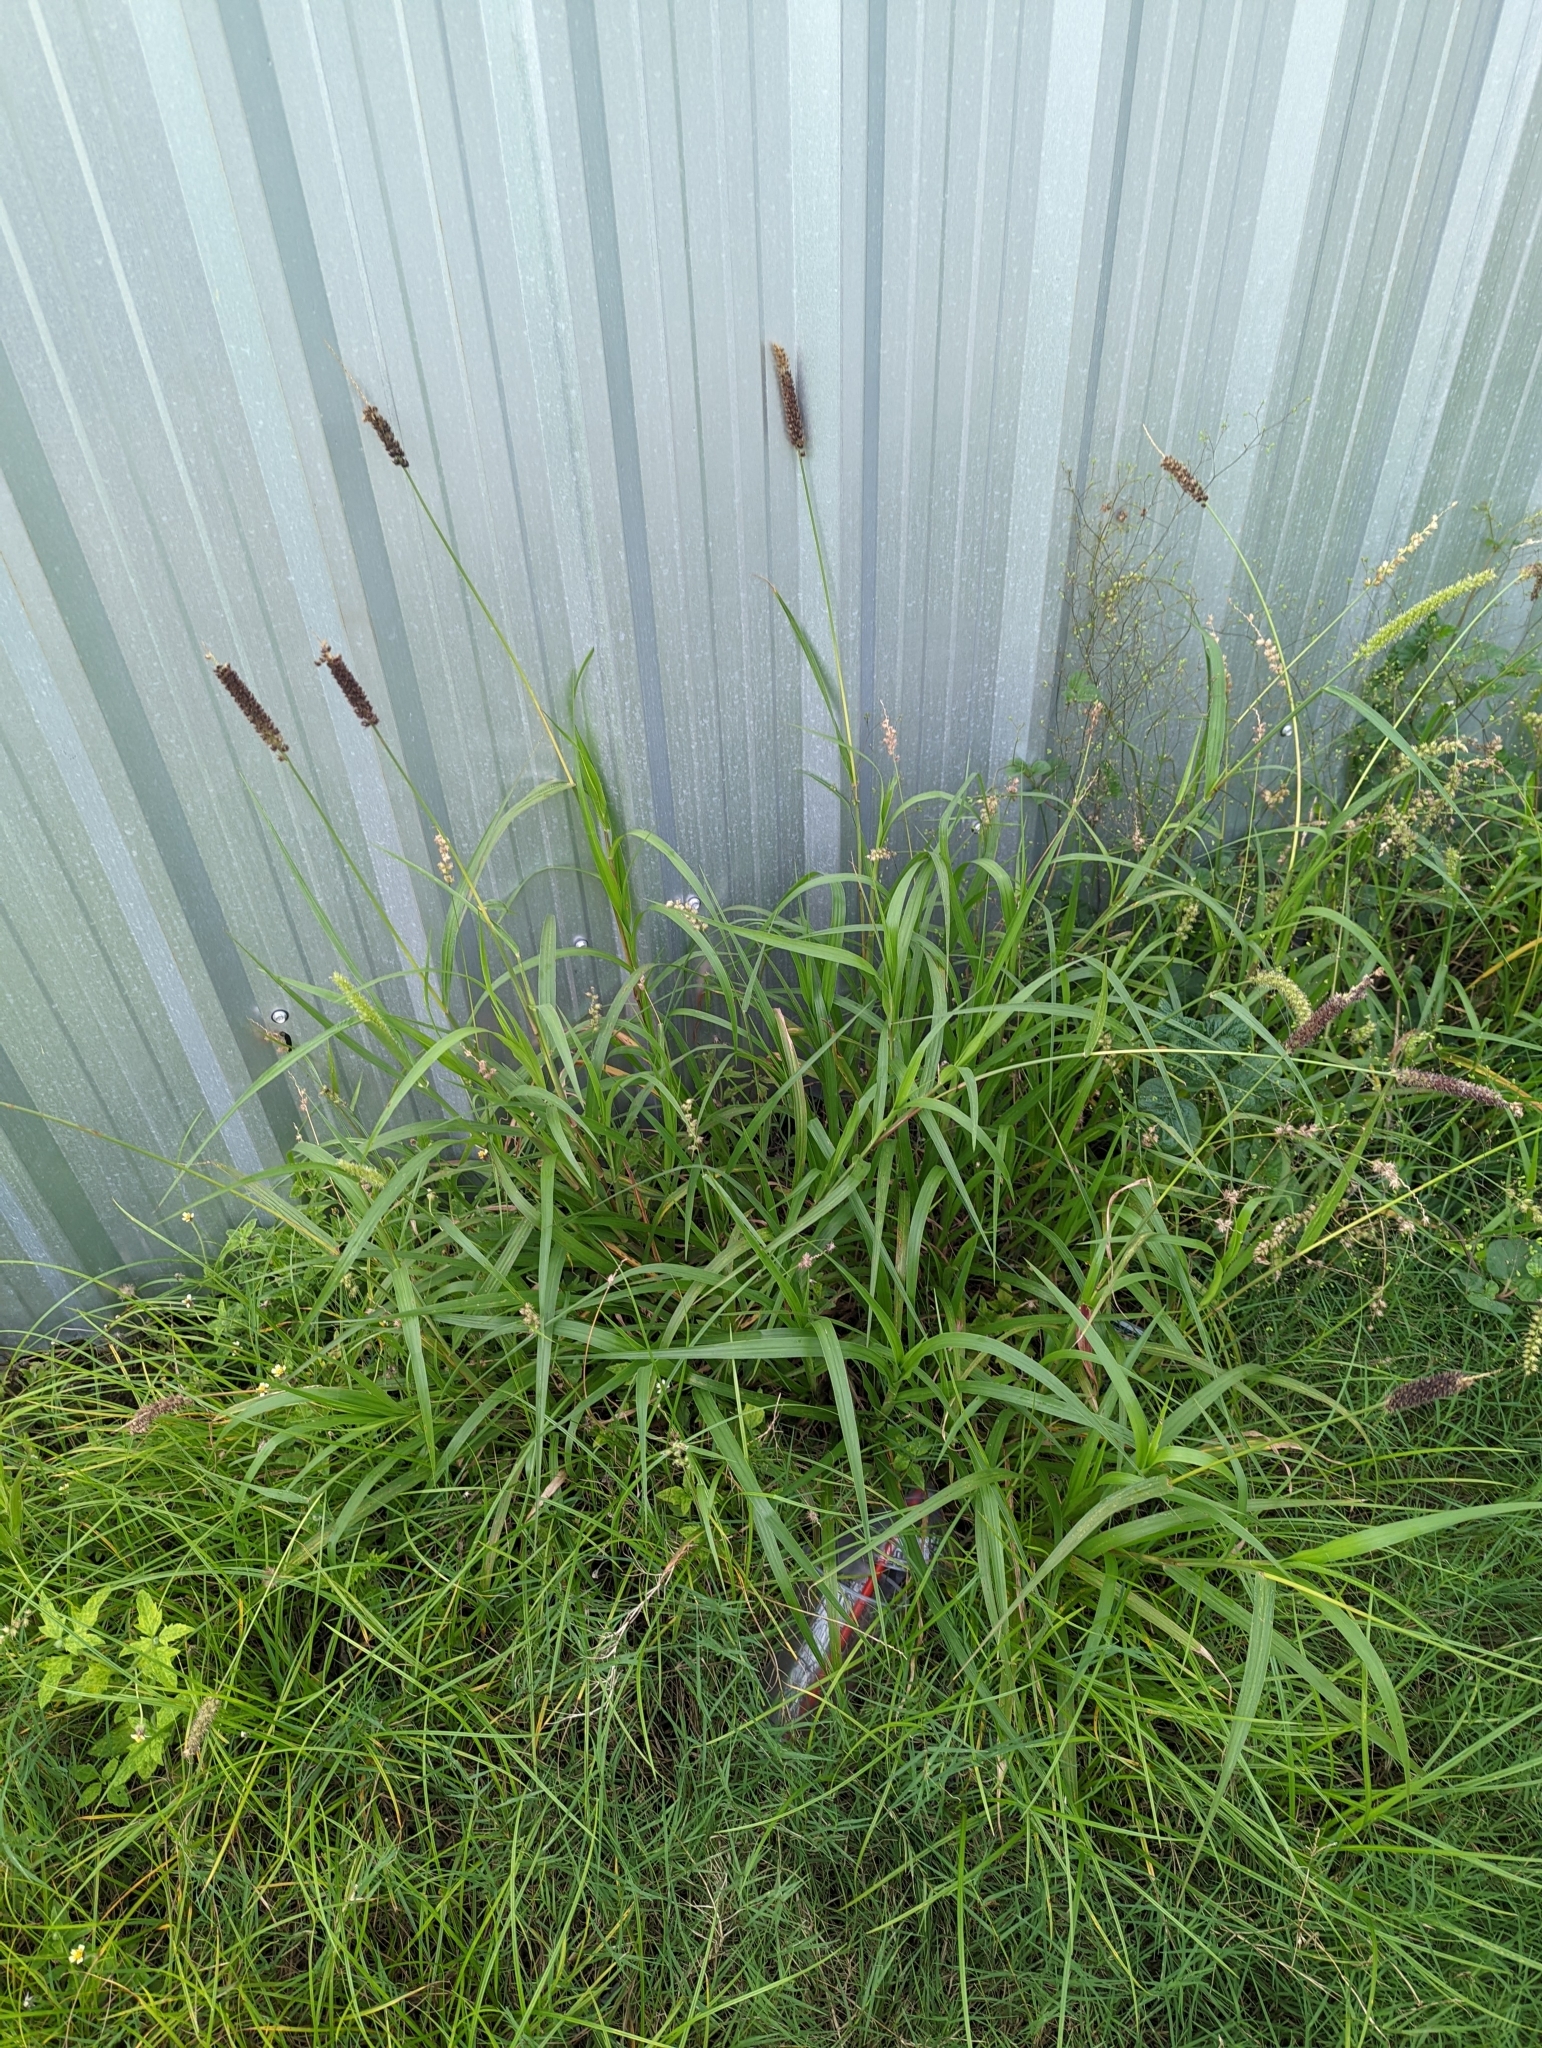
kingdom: Plantae
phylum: Tracheophyta
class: Liliopsida
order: Poales
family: Poaceae
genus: Cenchrus
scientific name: Cenchrus echinatus
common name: Southern sandbur
